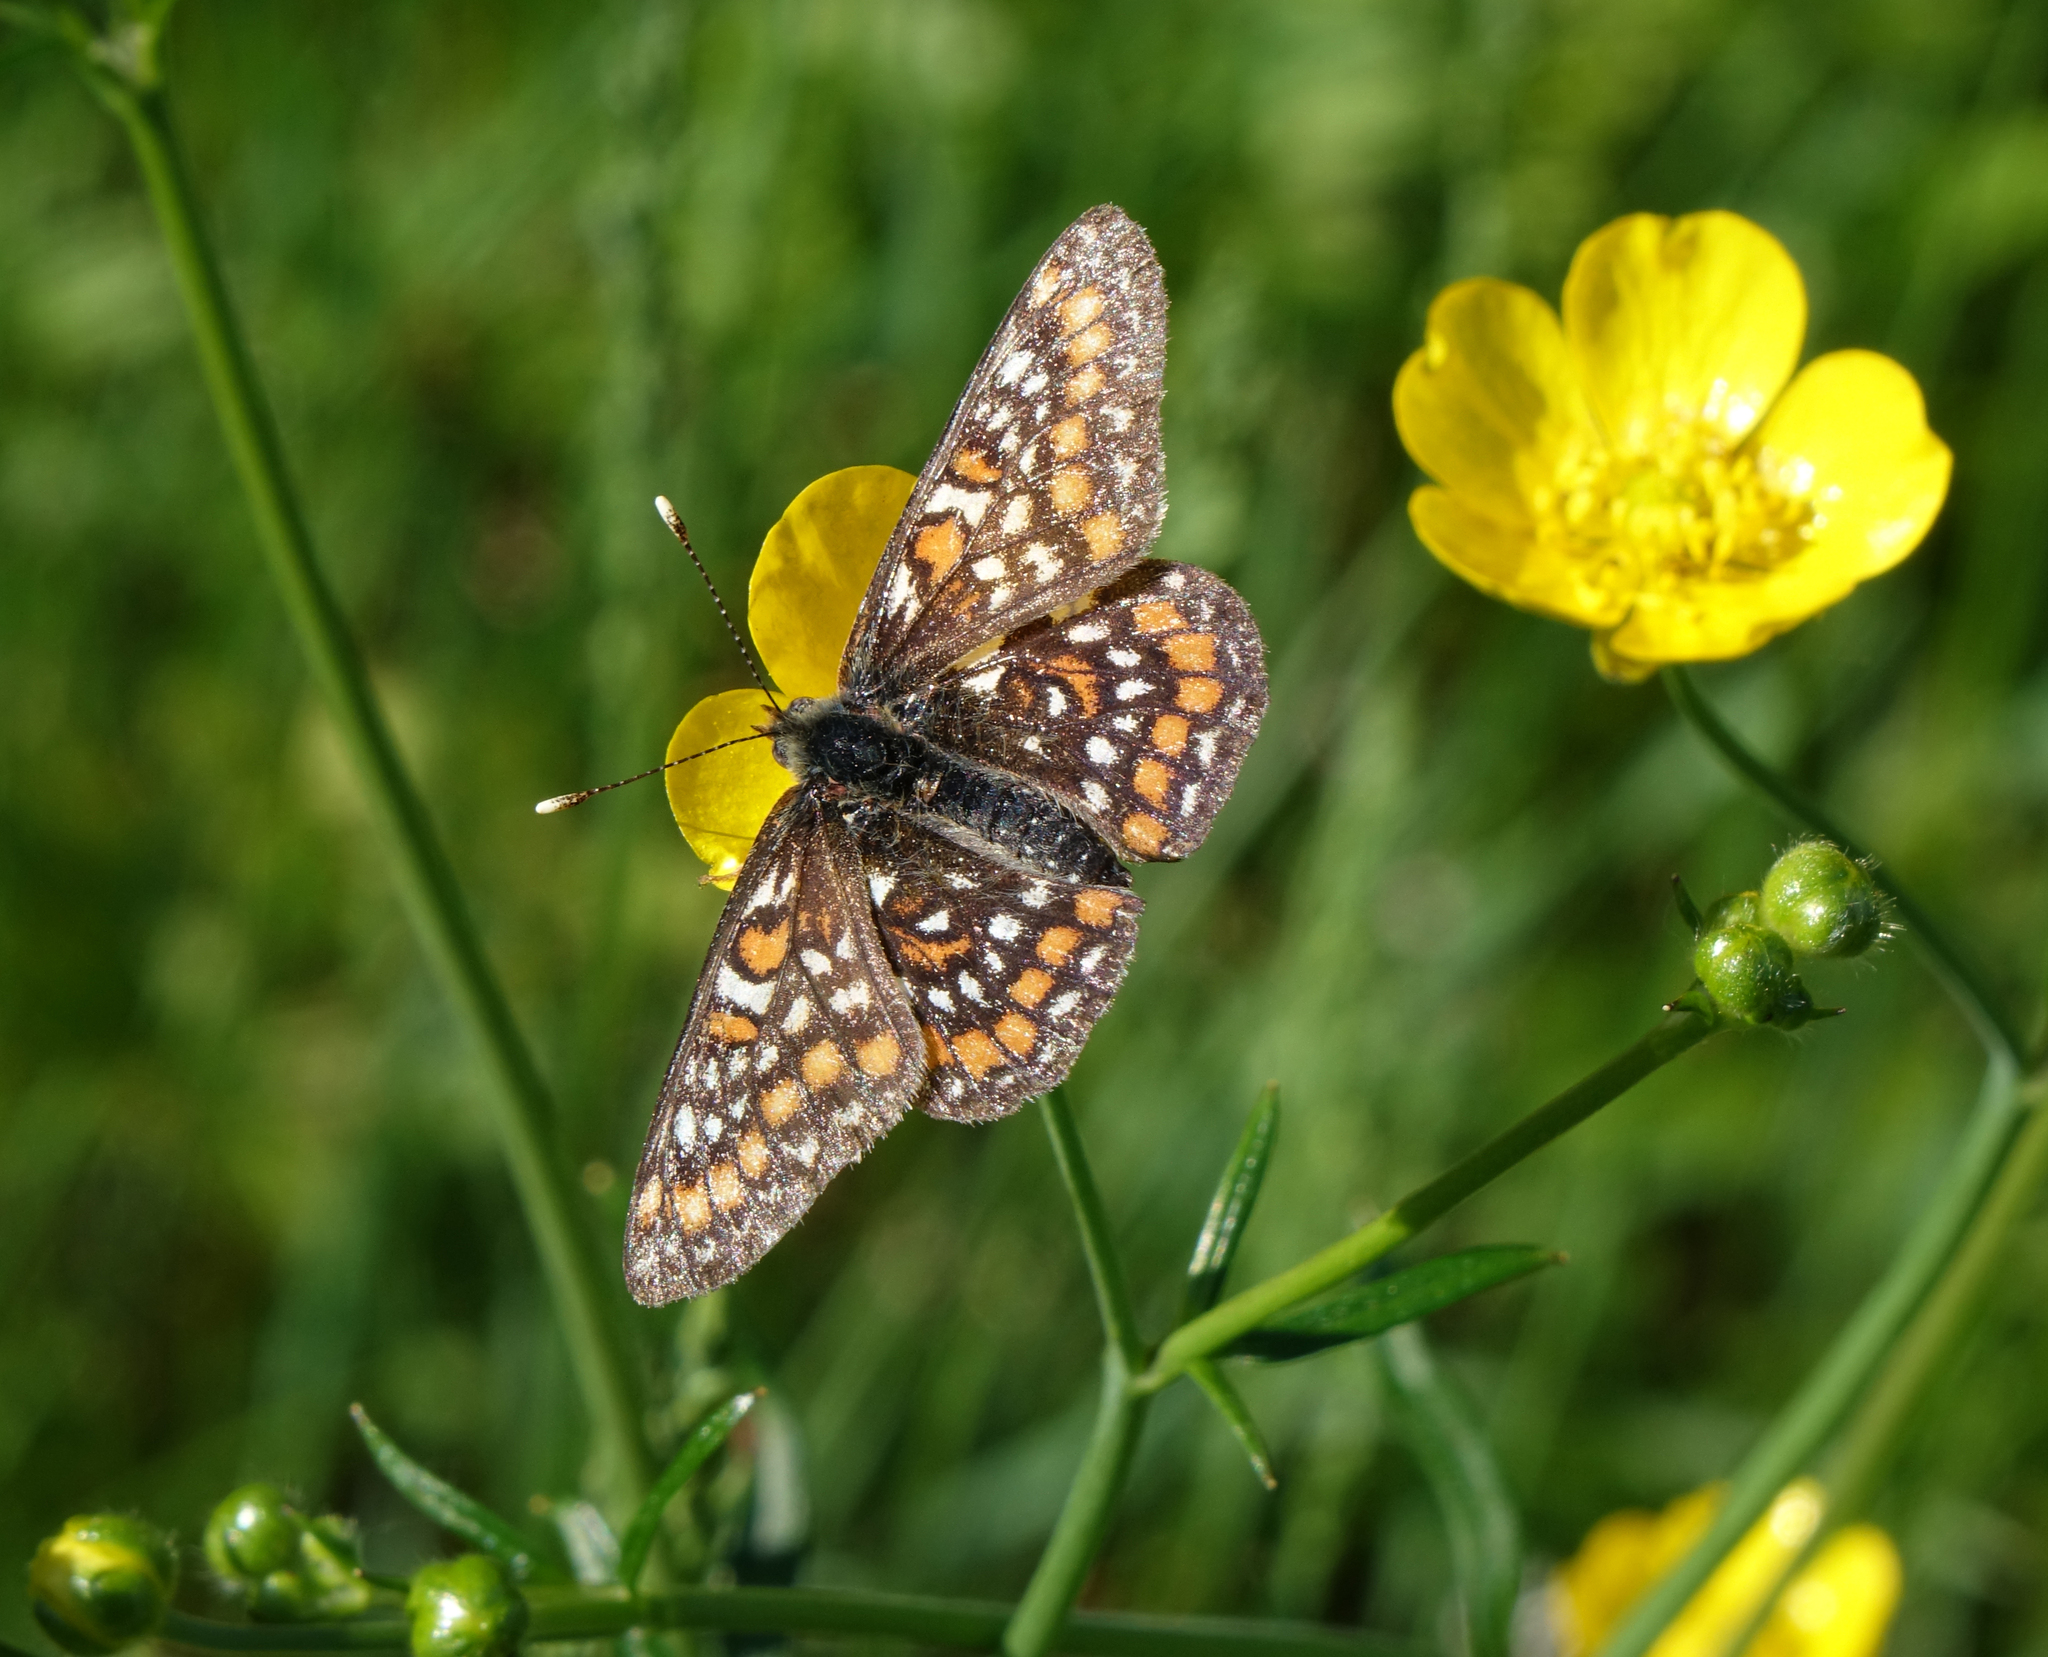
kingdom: Animalia
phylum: Arthropoda
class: Insecta
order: Lepidoptera
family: Nymphalidae
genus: Euphydryas
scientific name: Euphydryas maturna
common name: Scarce fritillary
